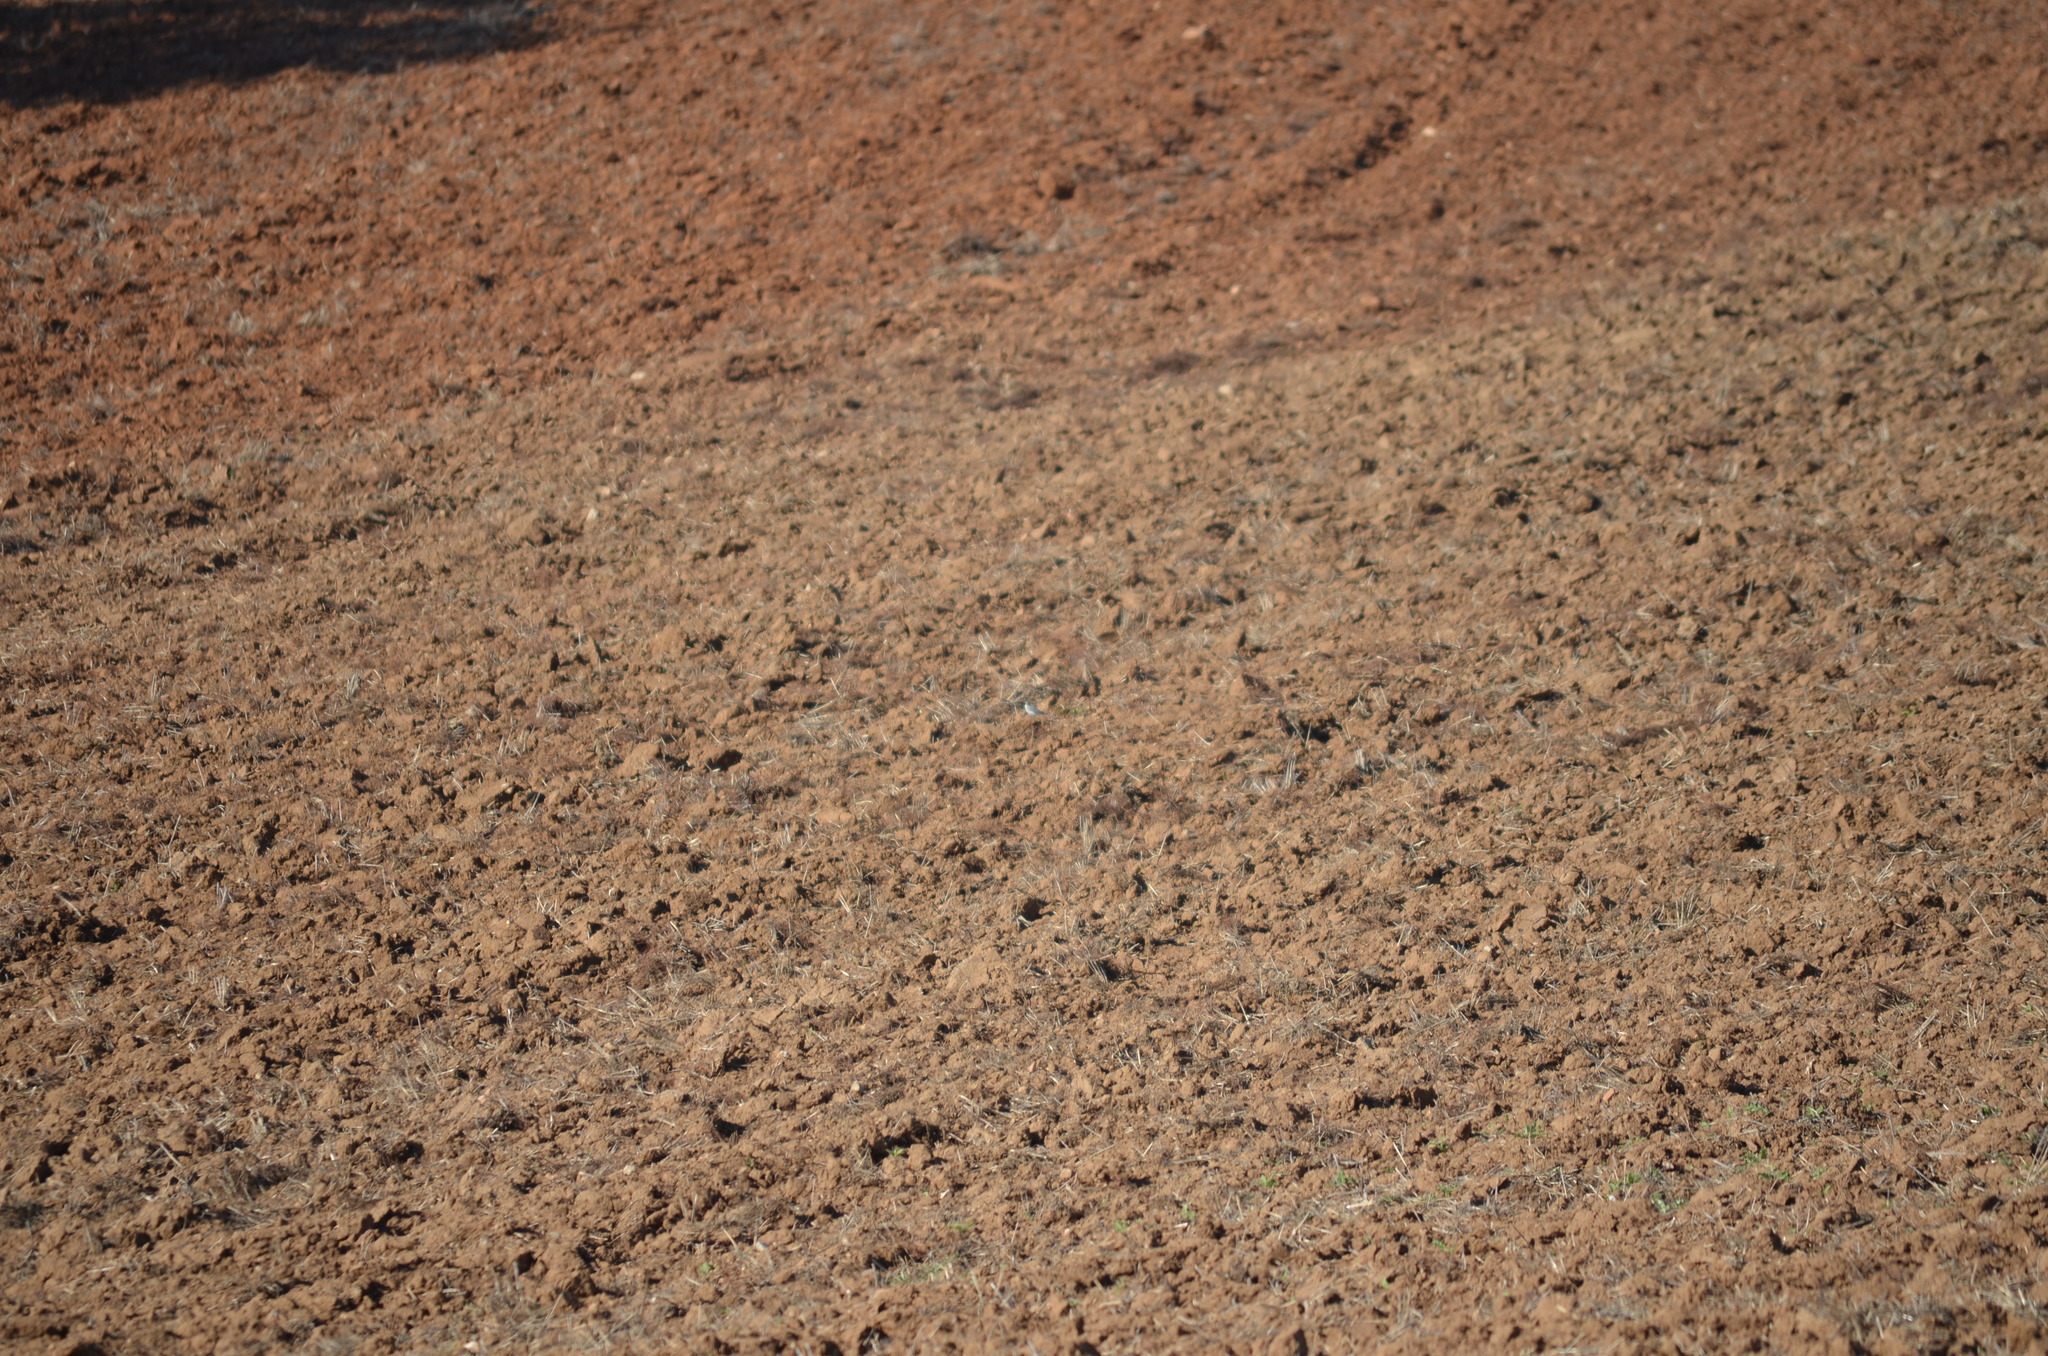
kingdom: Animalia
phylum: Chordata
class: Aves
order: Passeriformes
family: Motacillidae
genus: Motacilla
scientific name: Motacilla alba
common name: White wagtail
